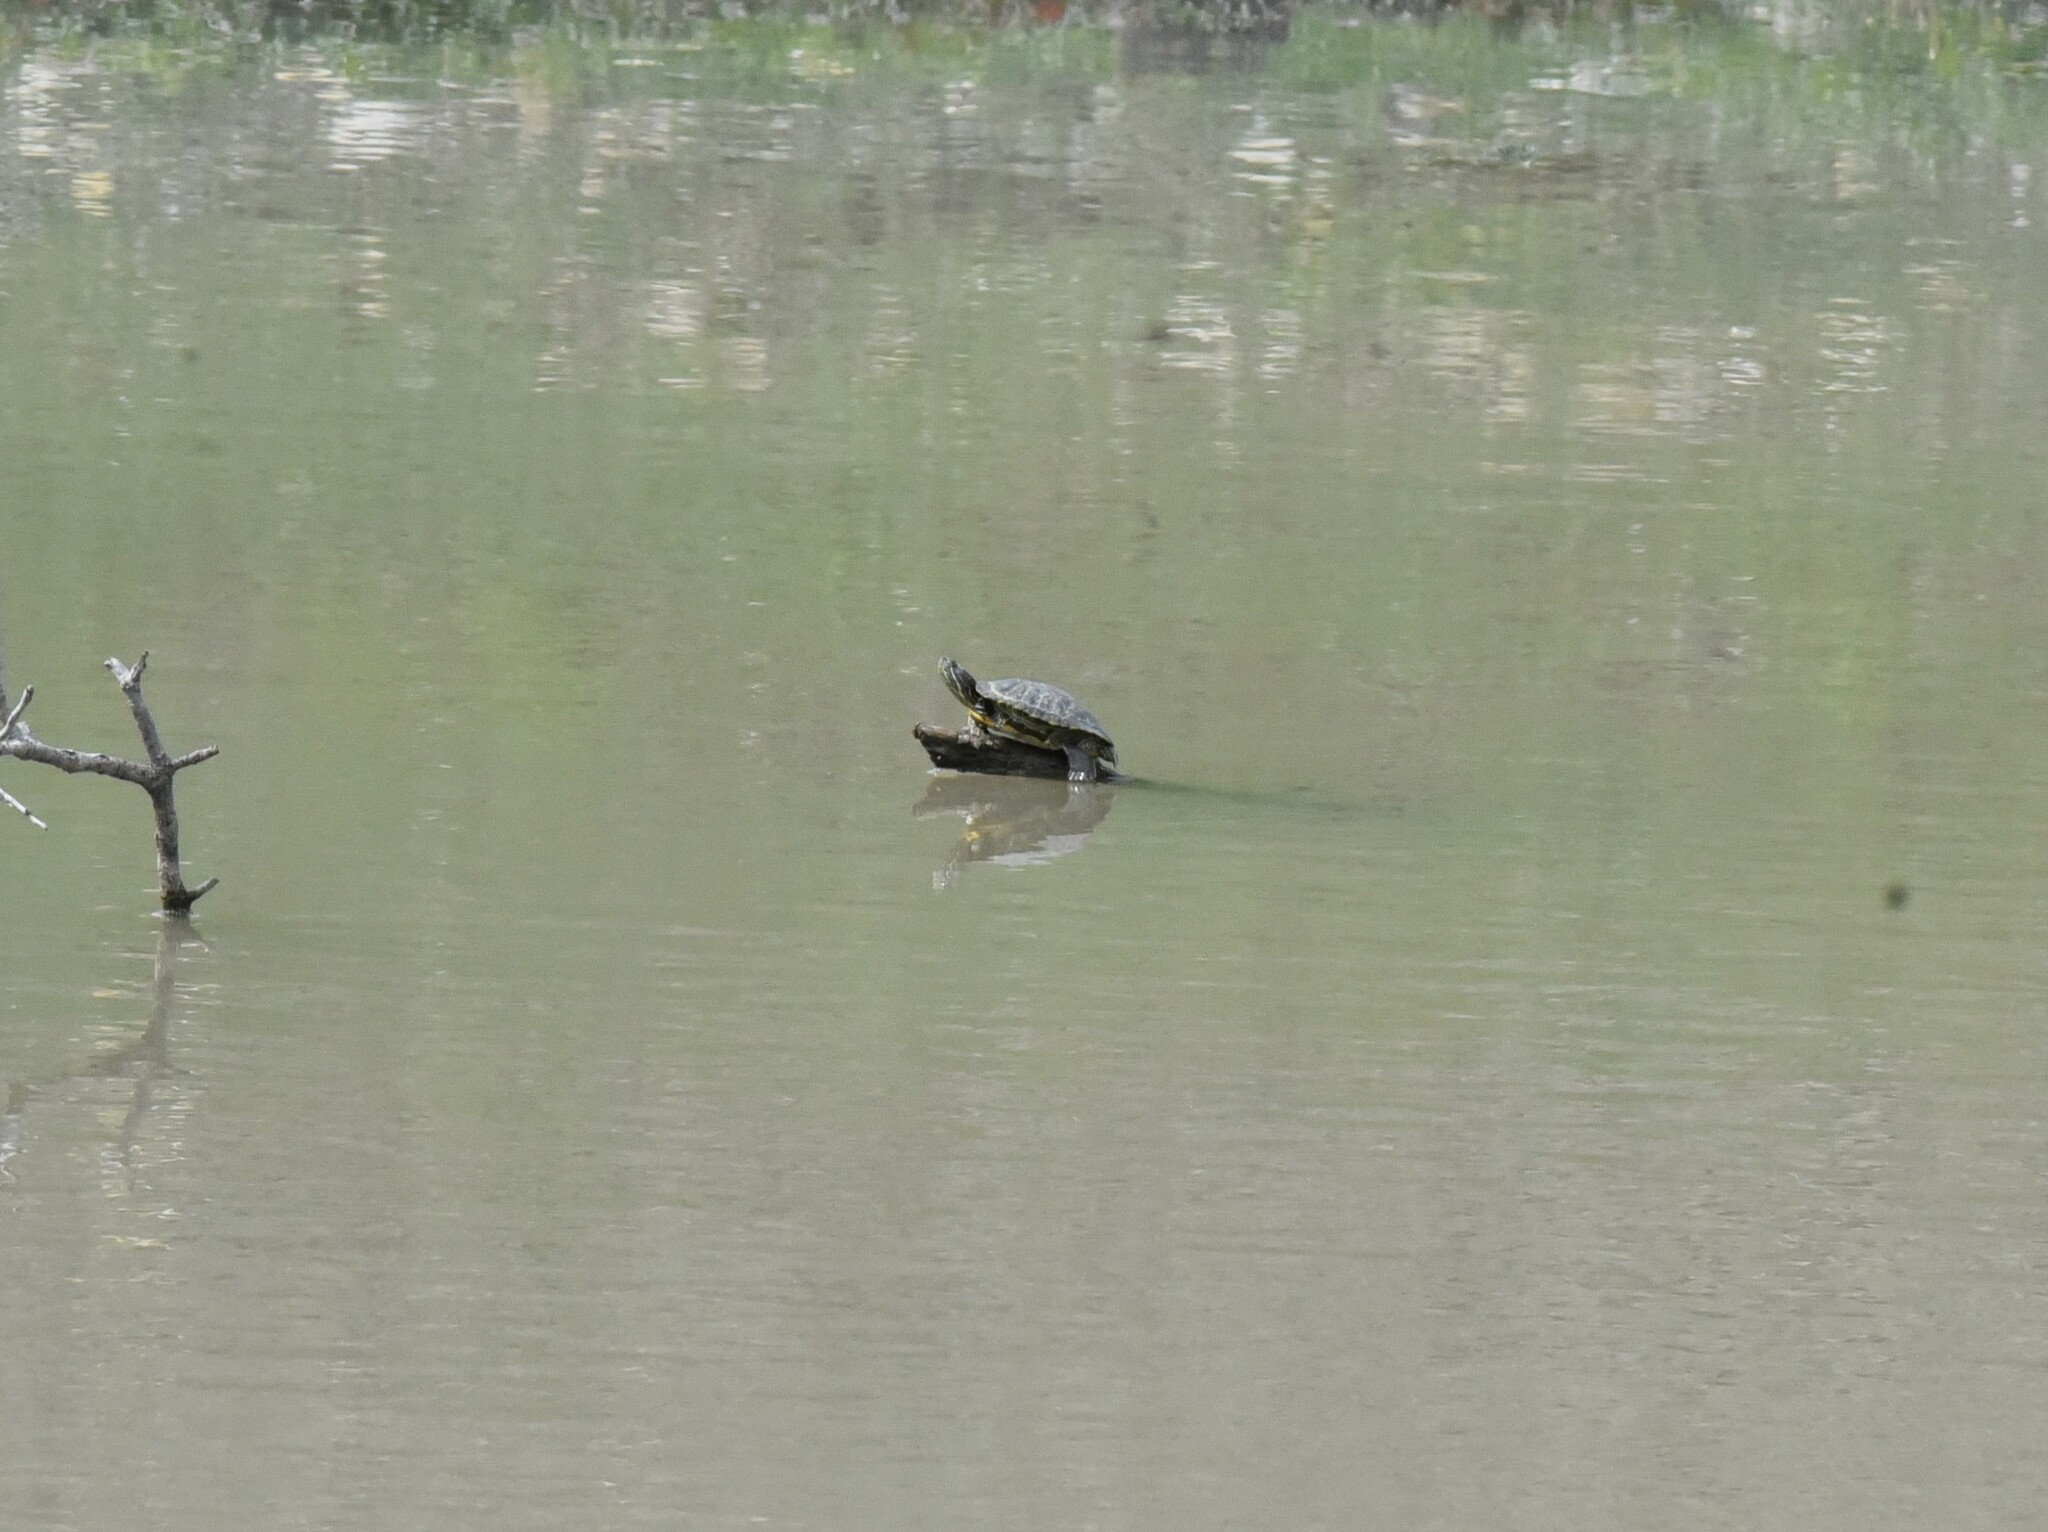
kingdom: Animalia
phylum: Chordata
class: Testudines
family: Emydidae
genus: Trachemys
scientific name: Trachemys scripta
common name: Slider
